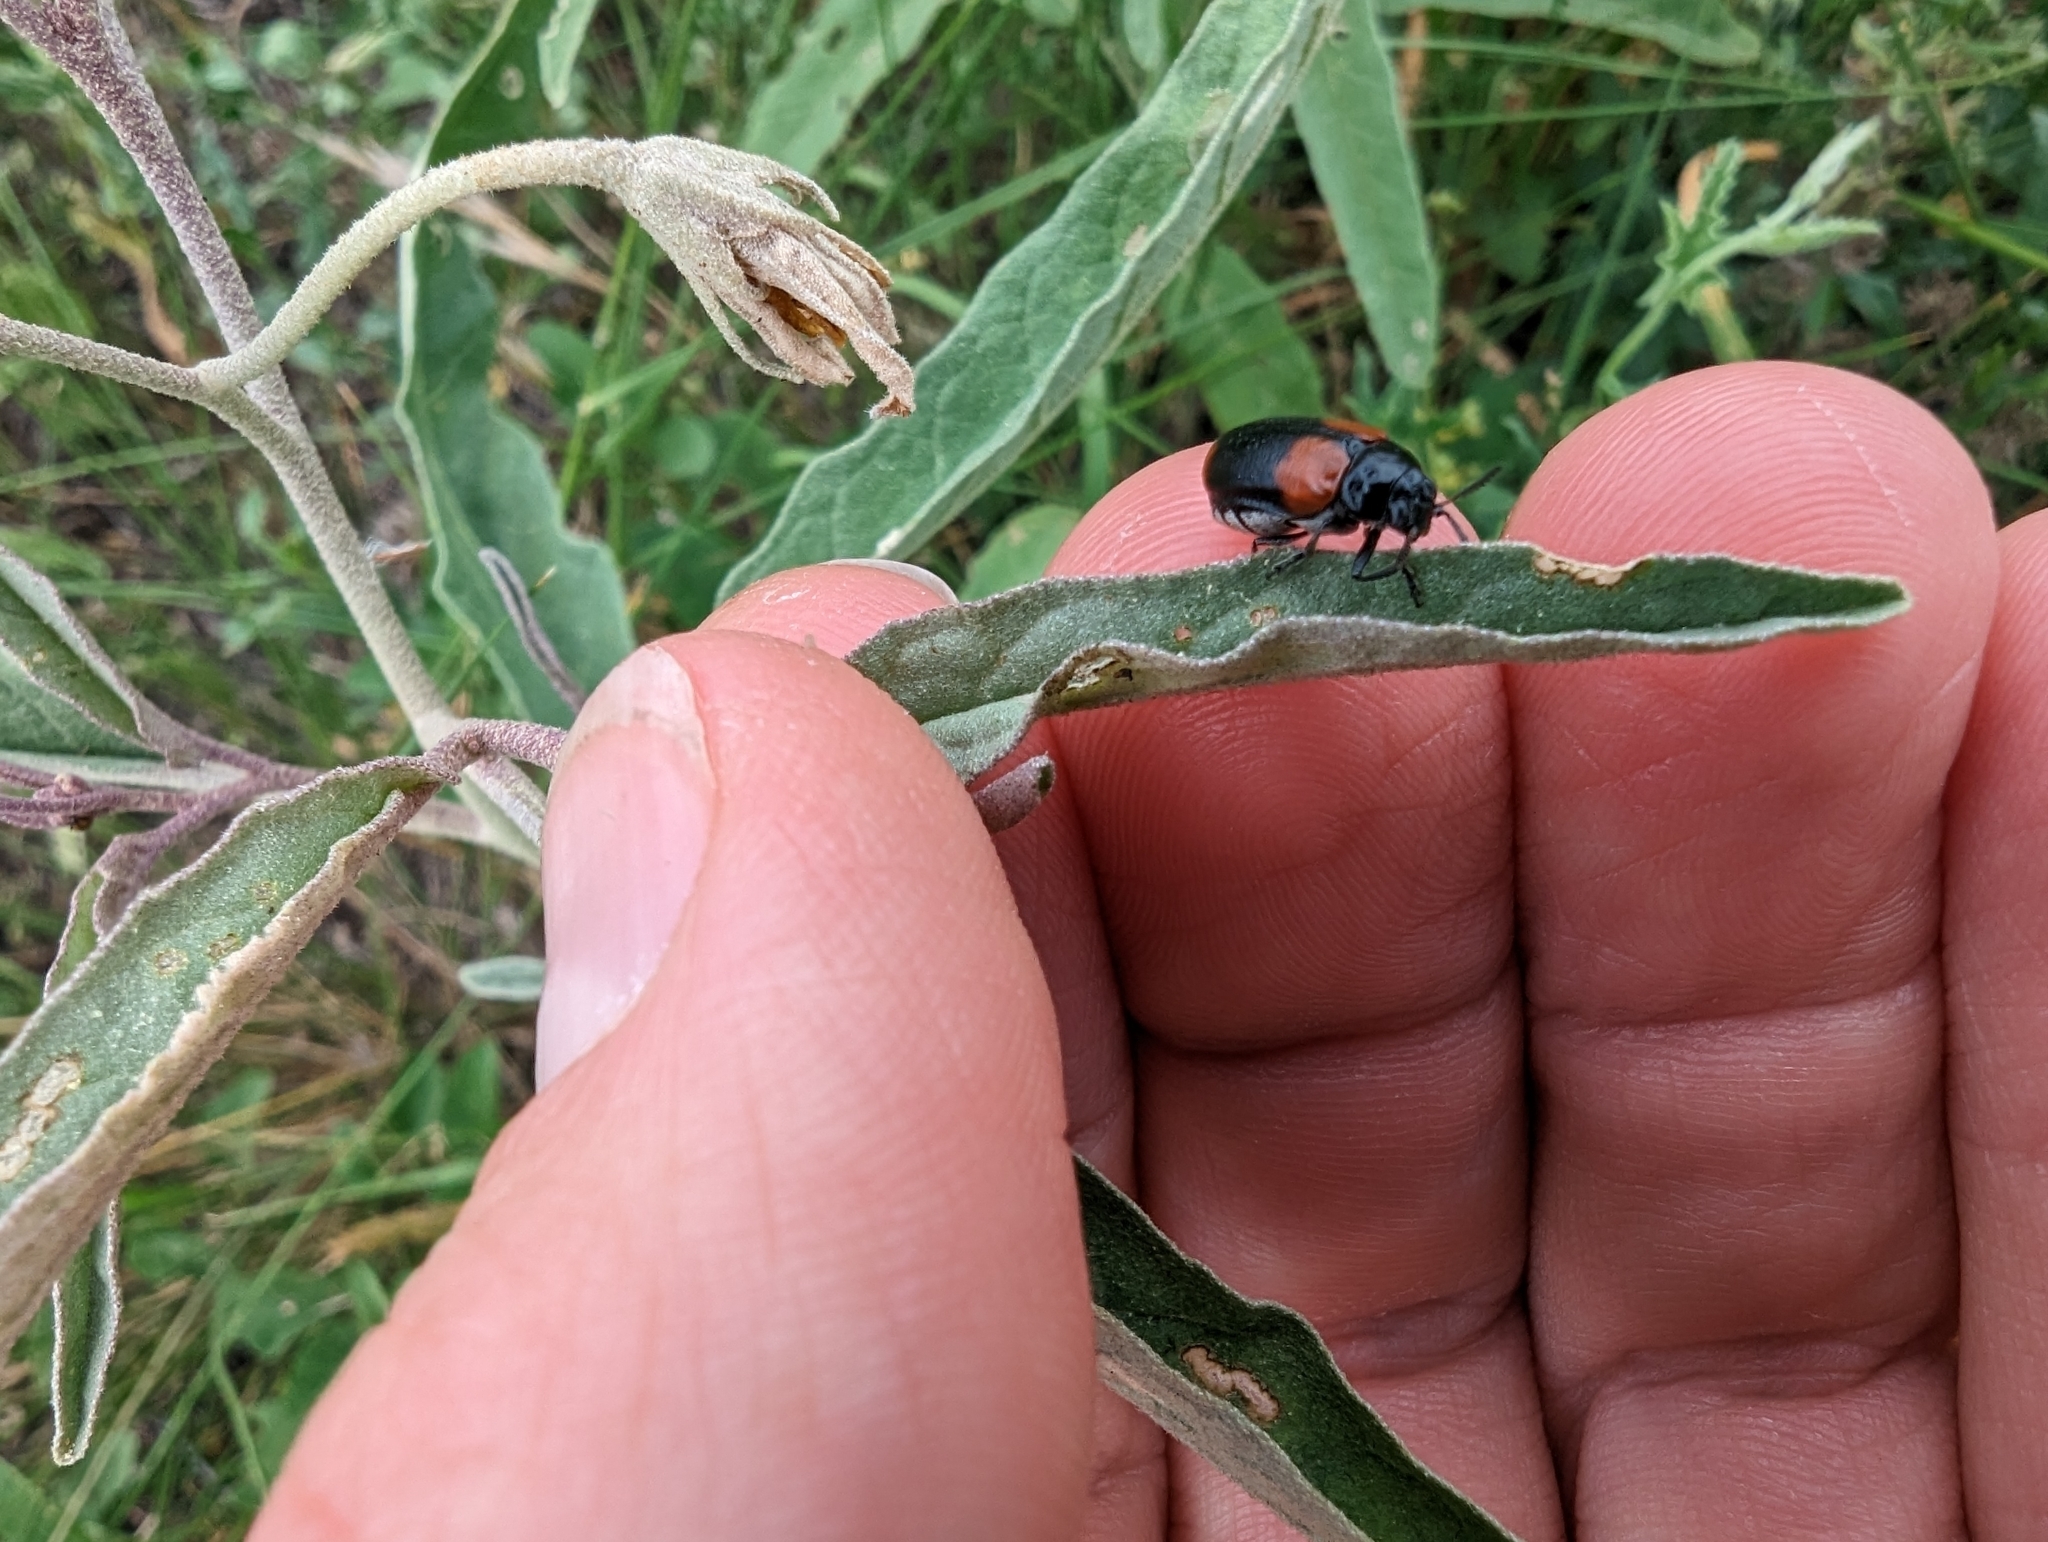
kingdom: Animalia
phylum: Arthropoda
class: Insecta
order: Coleoptera
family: Chrysomelidae
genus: Anomoea
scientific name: Anomoea rufifrons
